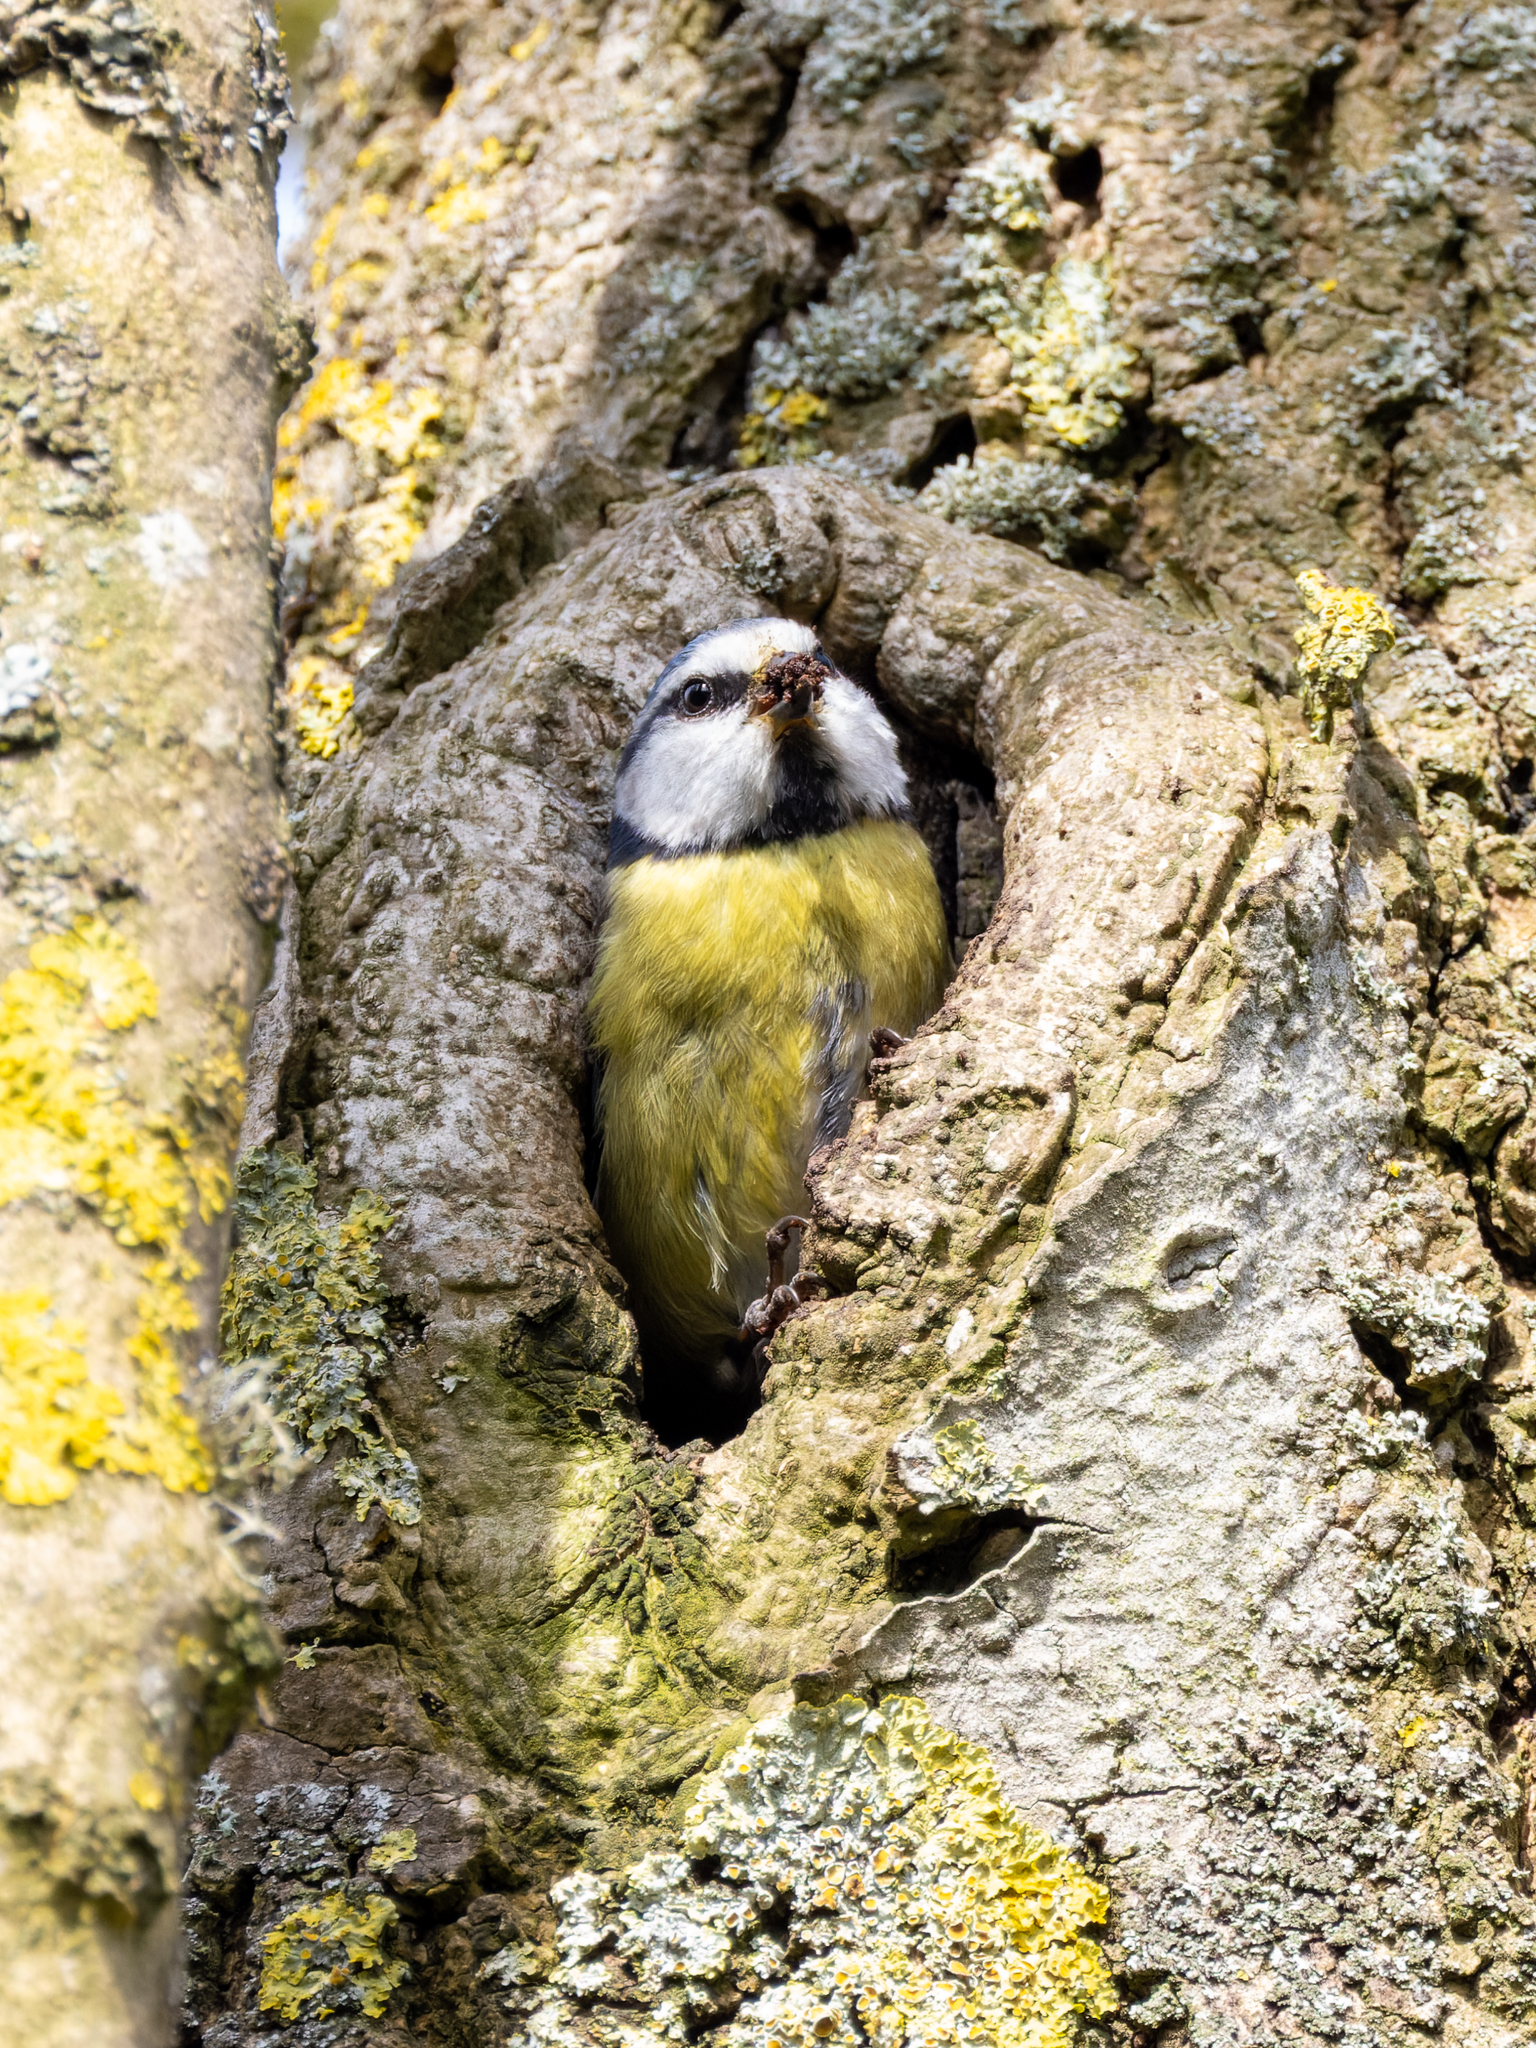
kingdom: Animalia
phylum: Chordata
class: Aves
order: Passeriformes
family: Paridae
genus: Cyanistes
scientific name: Cyanistes caeruleus
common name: Eurasian blue tit
